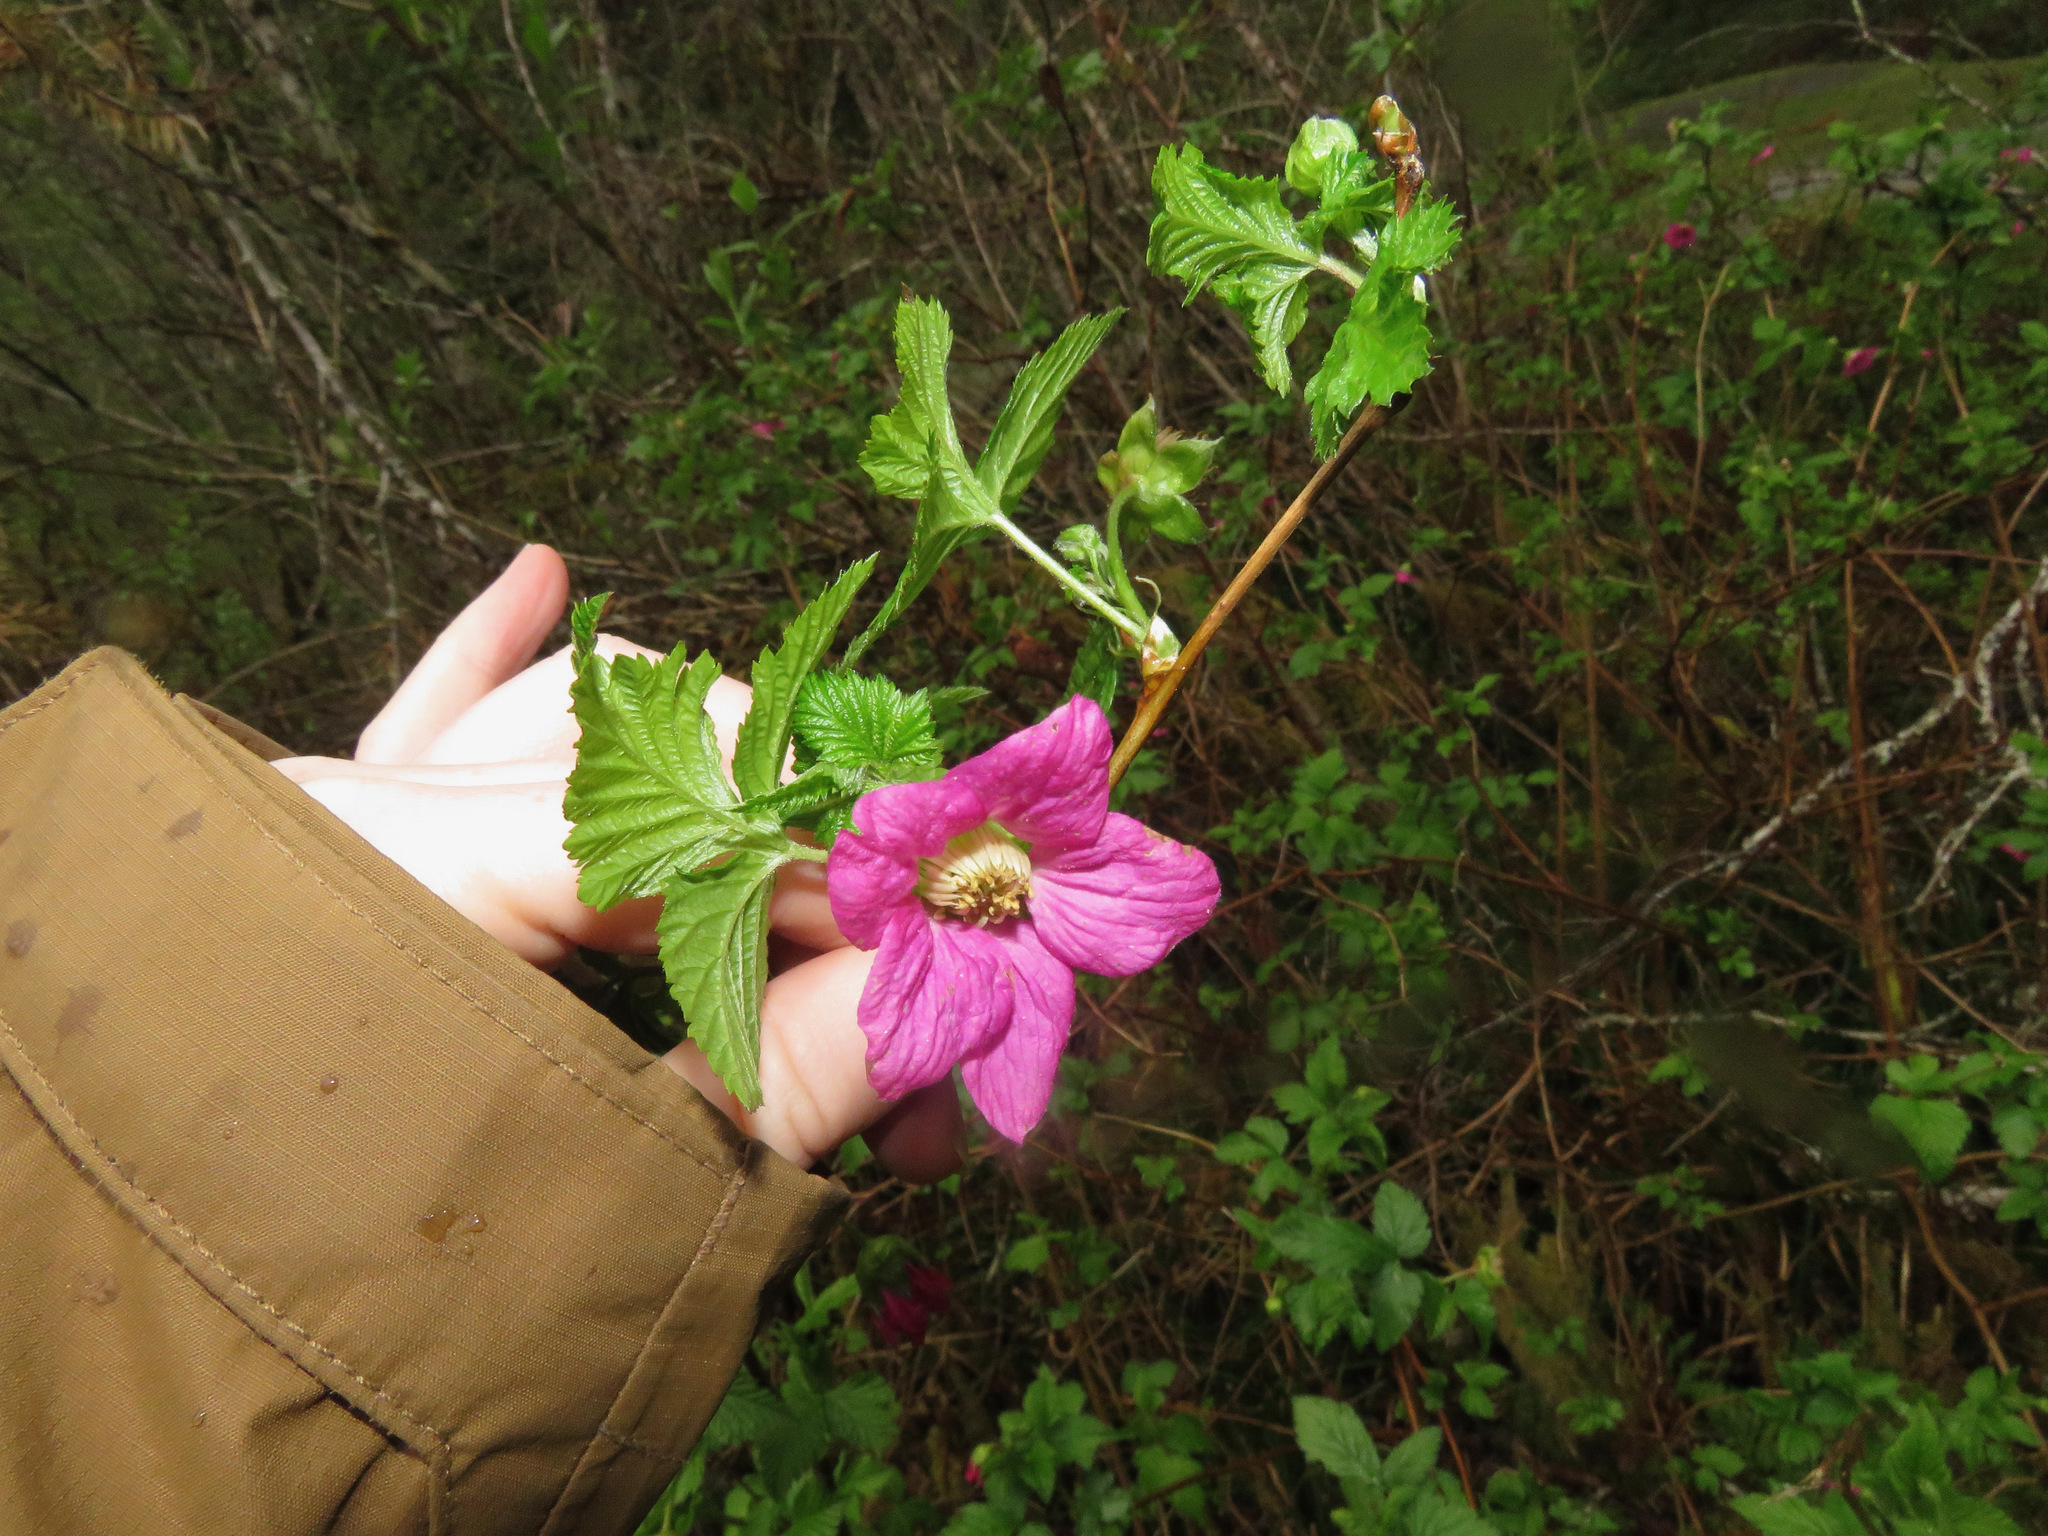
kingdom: Plantae
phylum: Tracheophyta
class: Magnoliopsida
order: Rosales
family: Rosaceae
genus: Rubus
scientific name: Rubus spectabilis
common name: Salmonberry
